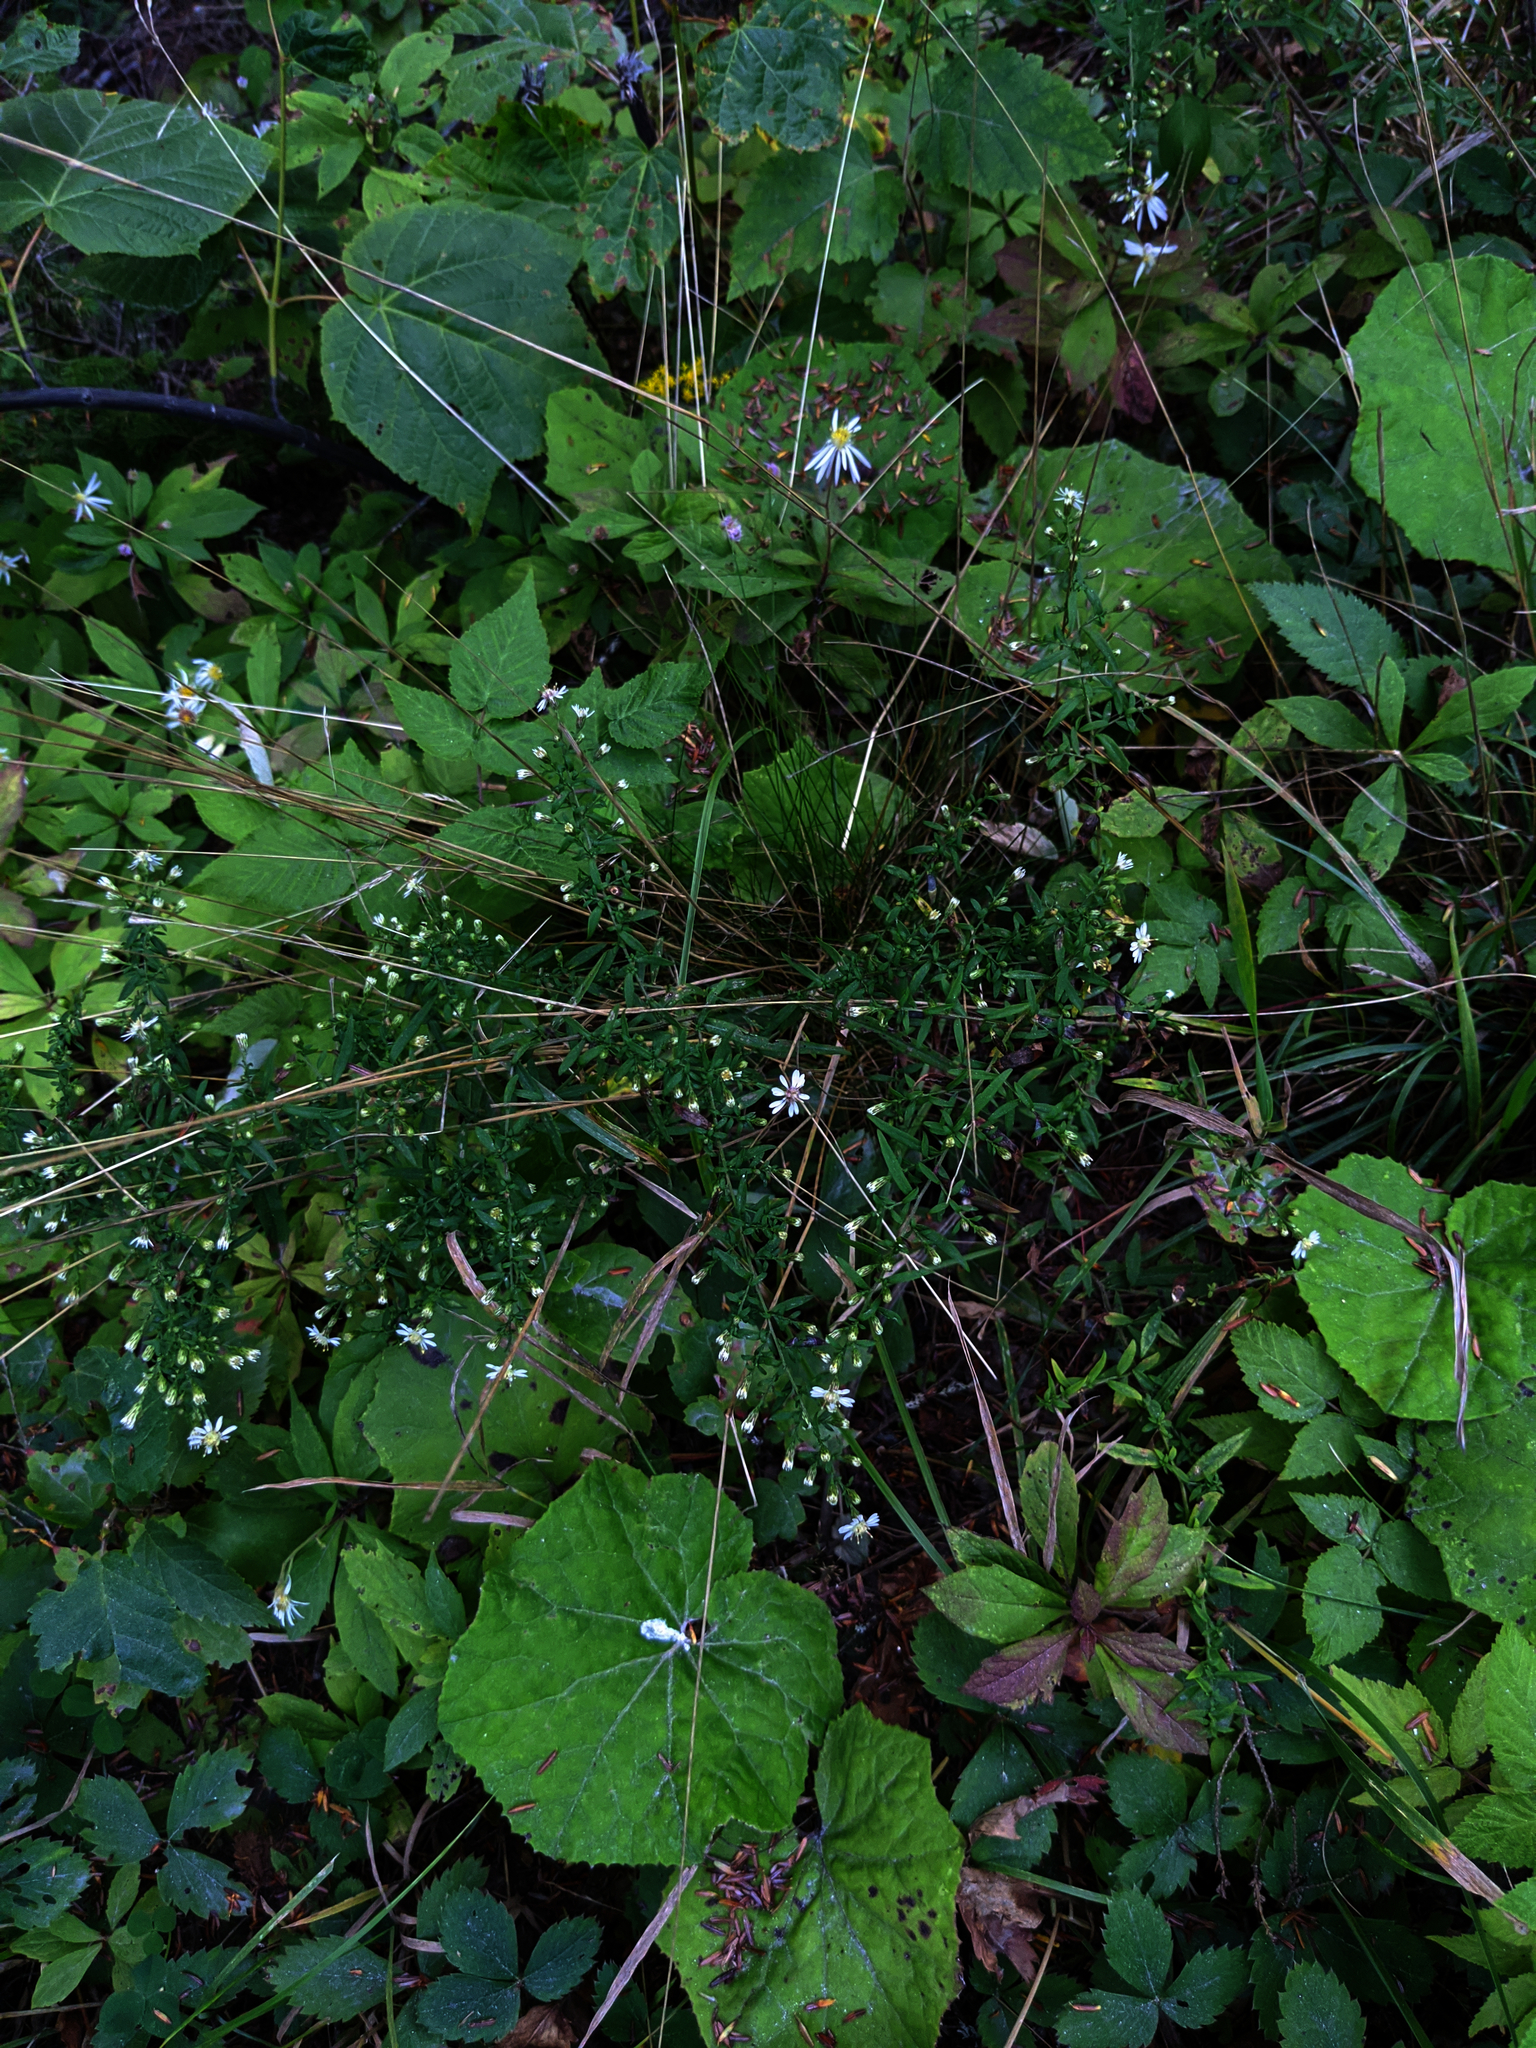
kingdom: Plantae
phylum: Tracheophyta
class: Magnoliopsida
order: Asterales
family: Asteraceae
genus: Symphyotrichum
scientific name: Symphyotrichum lateriflorum
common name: Calico aster
